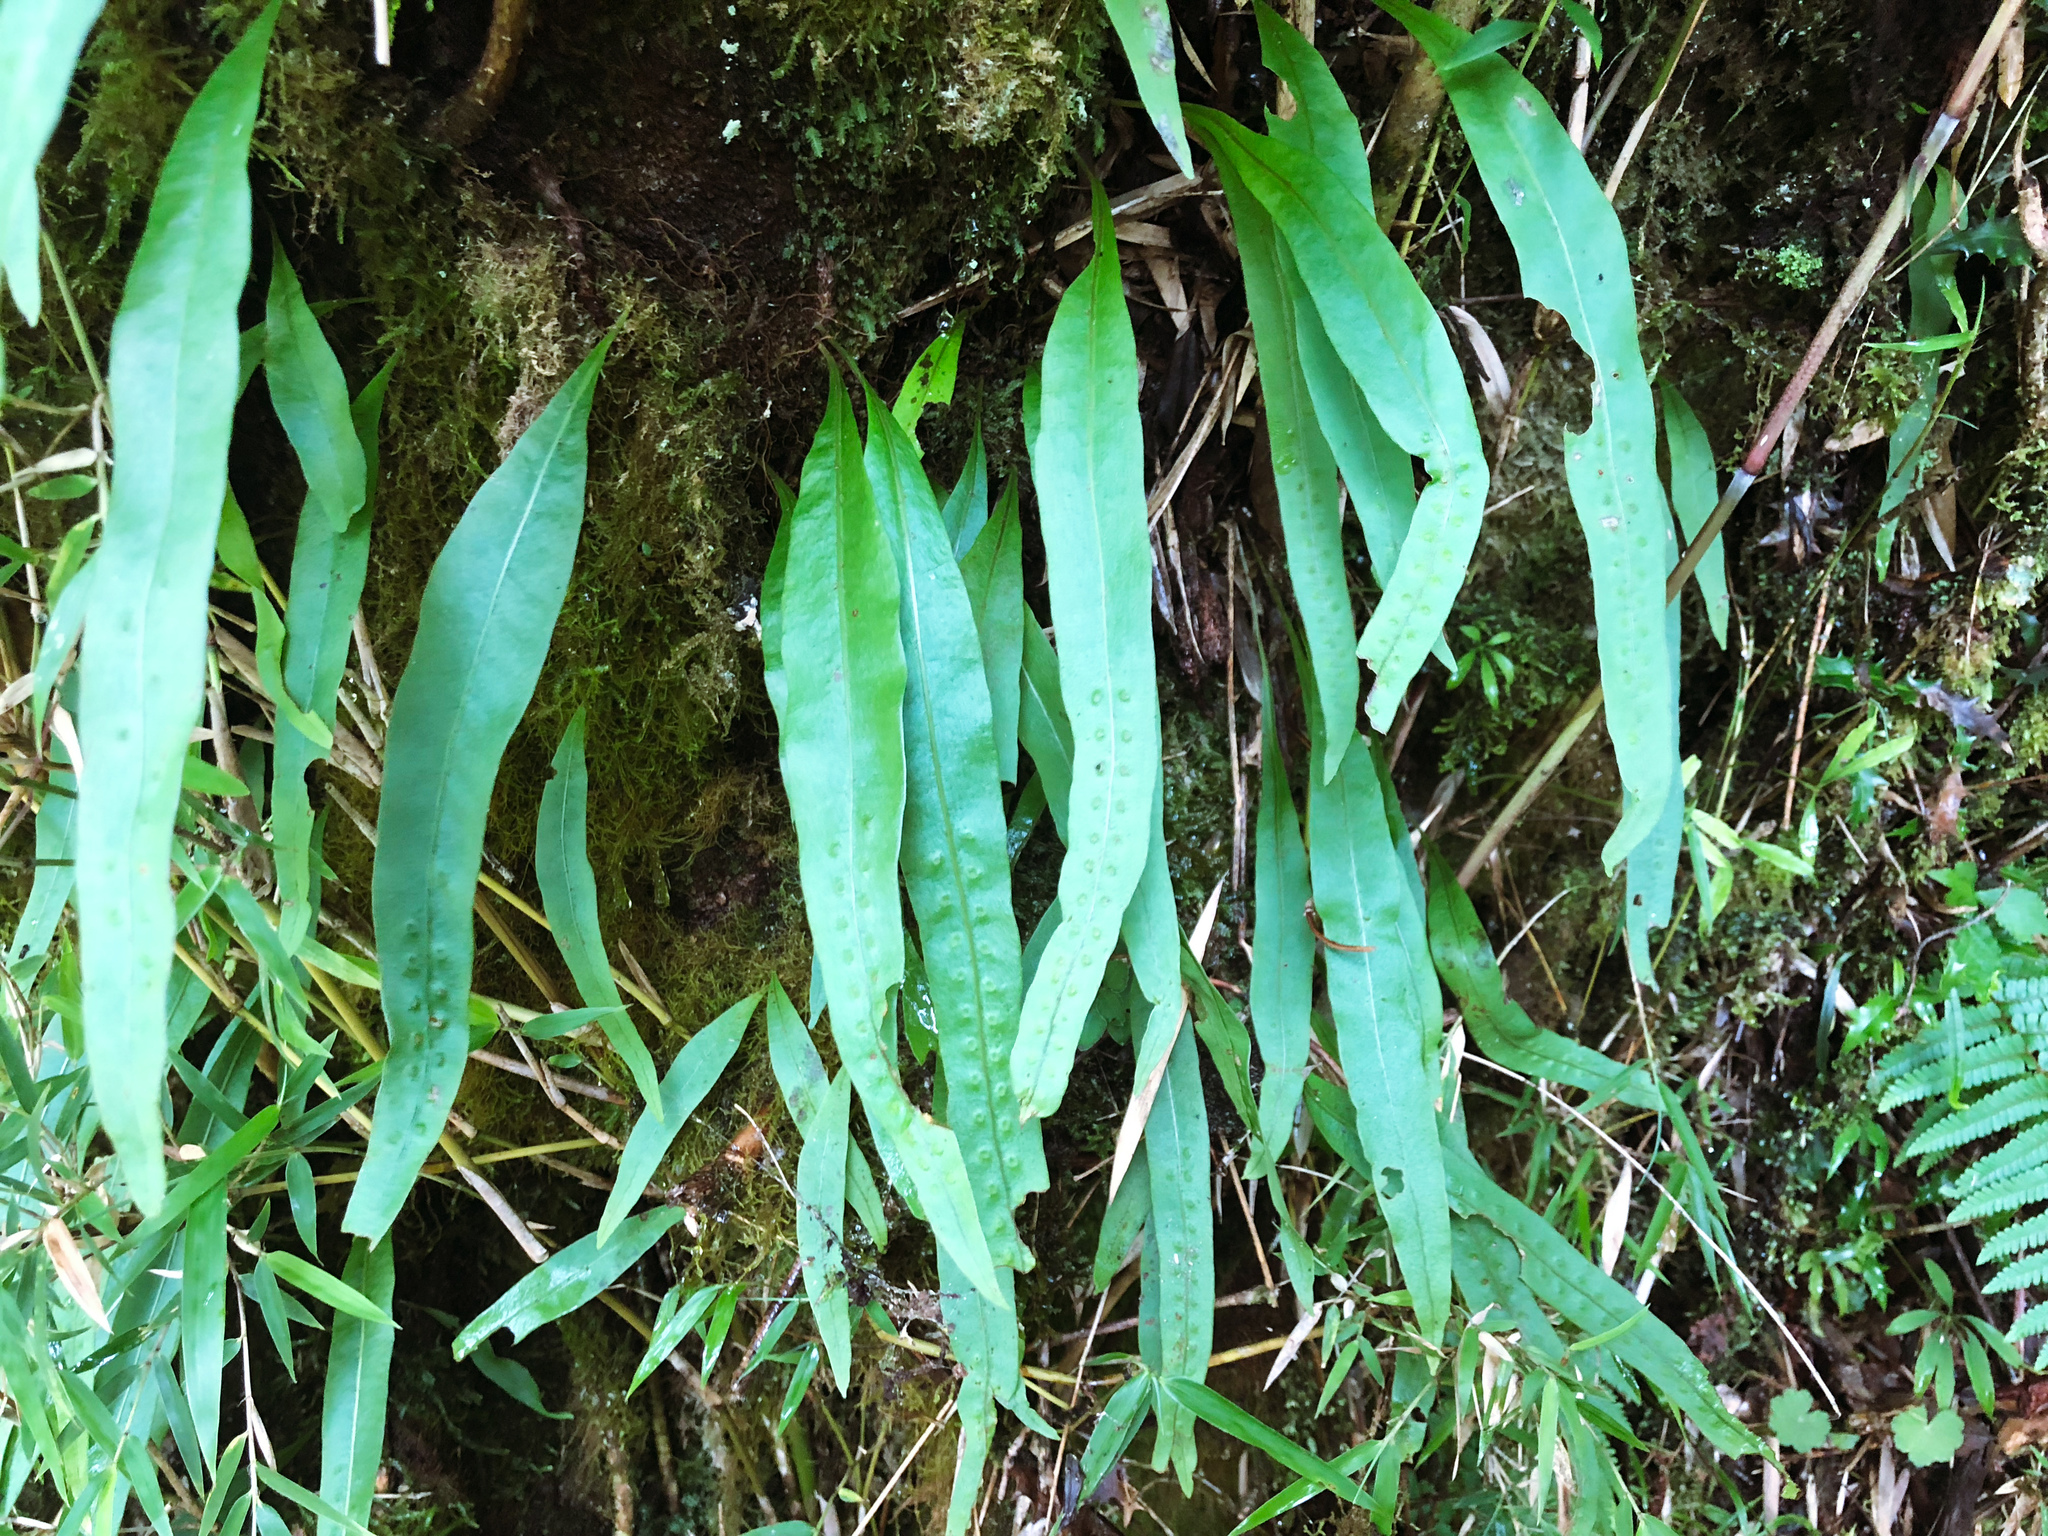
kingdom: Plantae
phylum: Tracheophyta
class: Polypodiopsida
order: Polypodiales
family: Polypodiaceae
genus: Lepisorus
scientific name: Lepisorus morrisonensis
